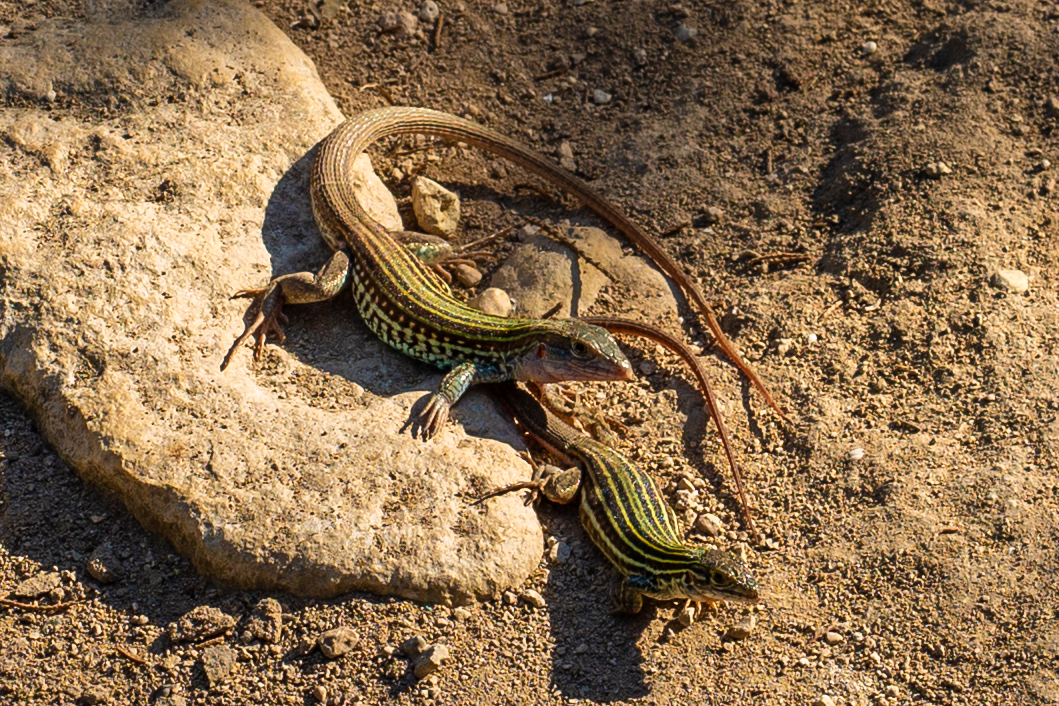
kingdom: Animalia
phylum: Chordata
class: Squamata
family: Teiidae
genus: Aspidoscelis
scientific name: Aspidoscelis gularis
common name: Eastern spotted whiptail
